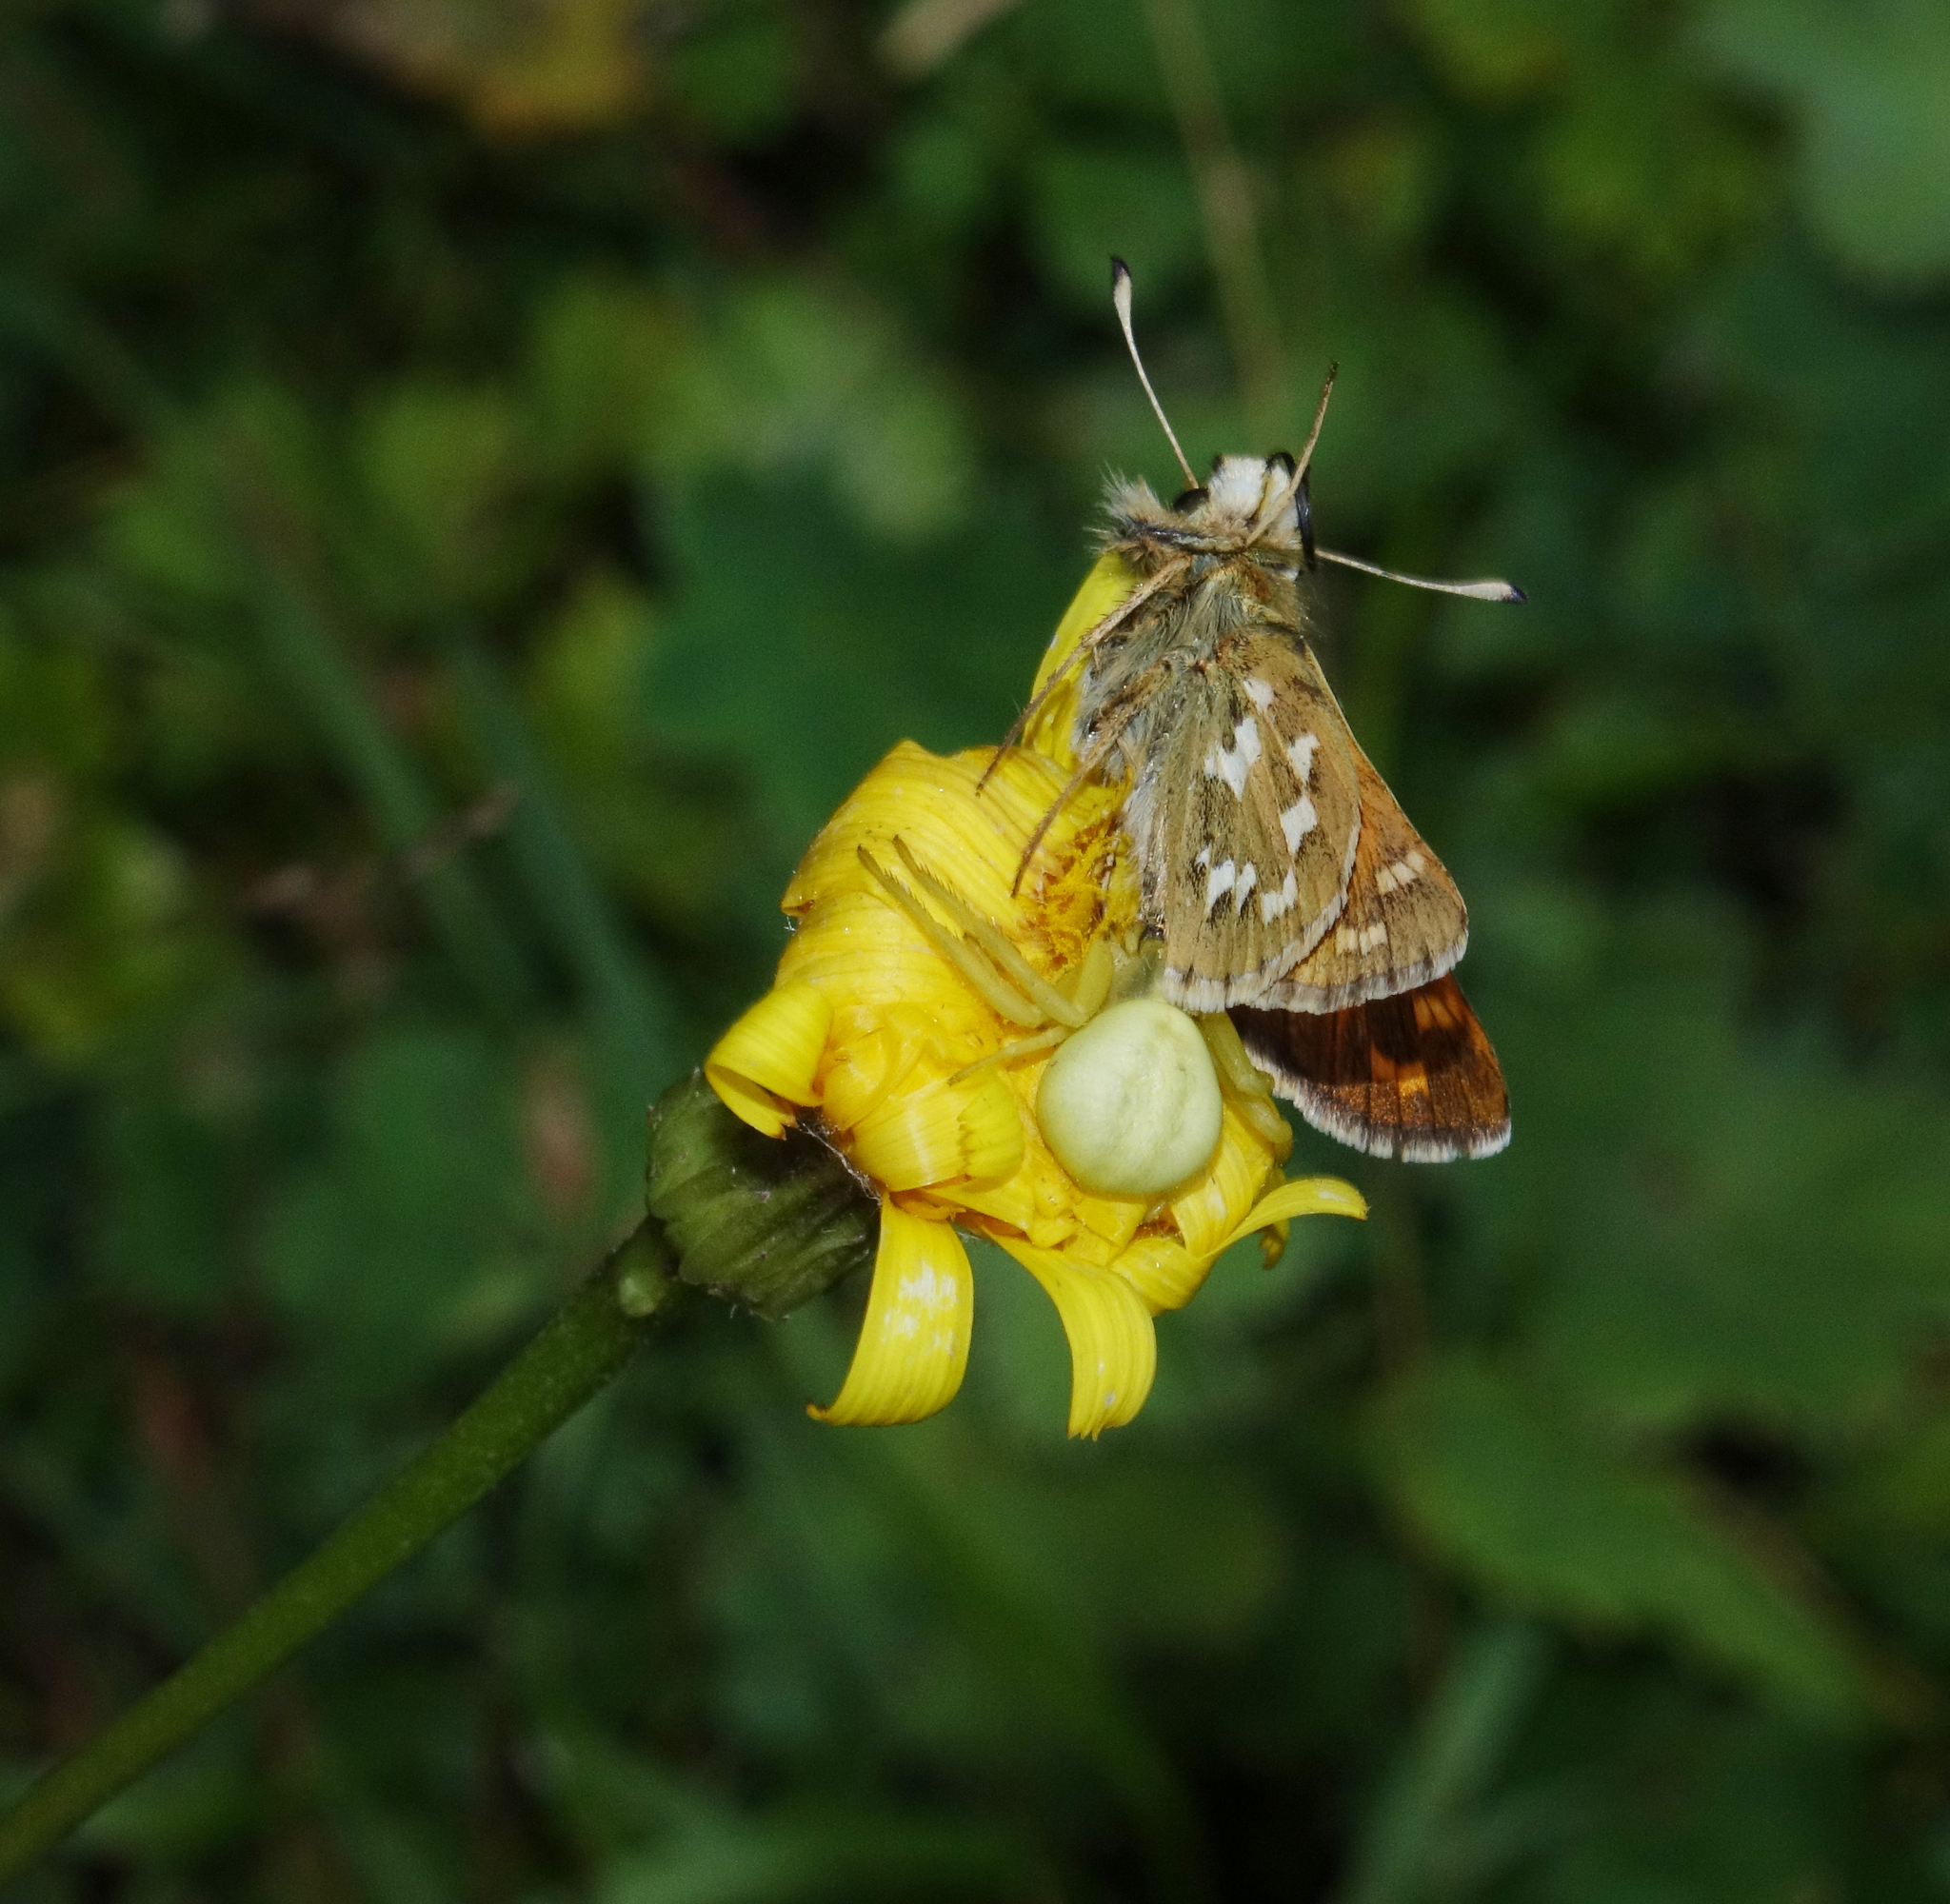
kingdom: Animalia
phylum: Arthropoda
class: Arachnida
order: Araneae
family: Thomisidae
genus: Misumena
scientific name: Misumena vatia
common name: Goldenrod crab spider
